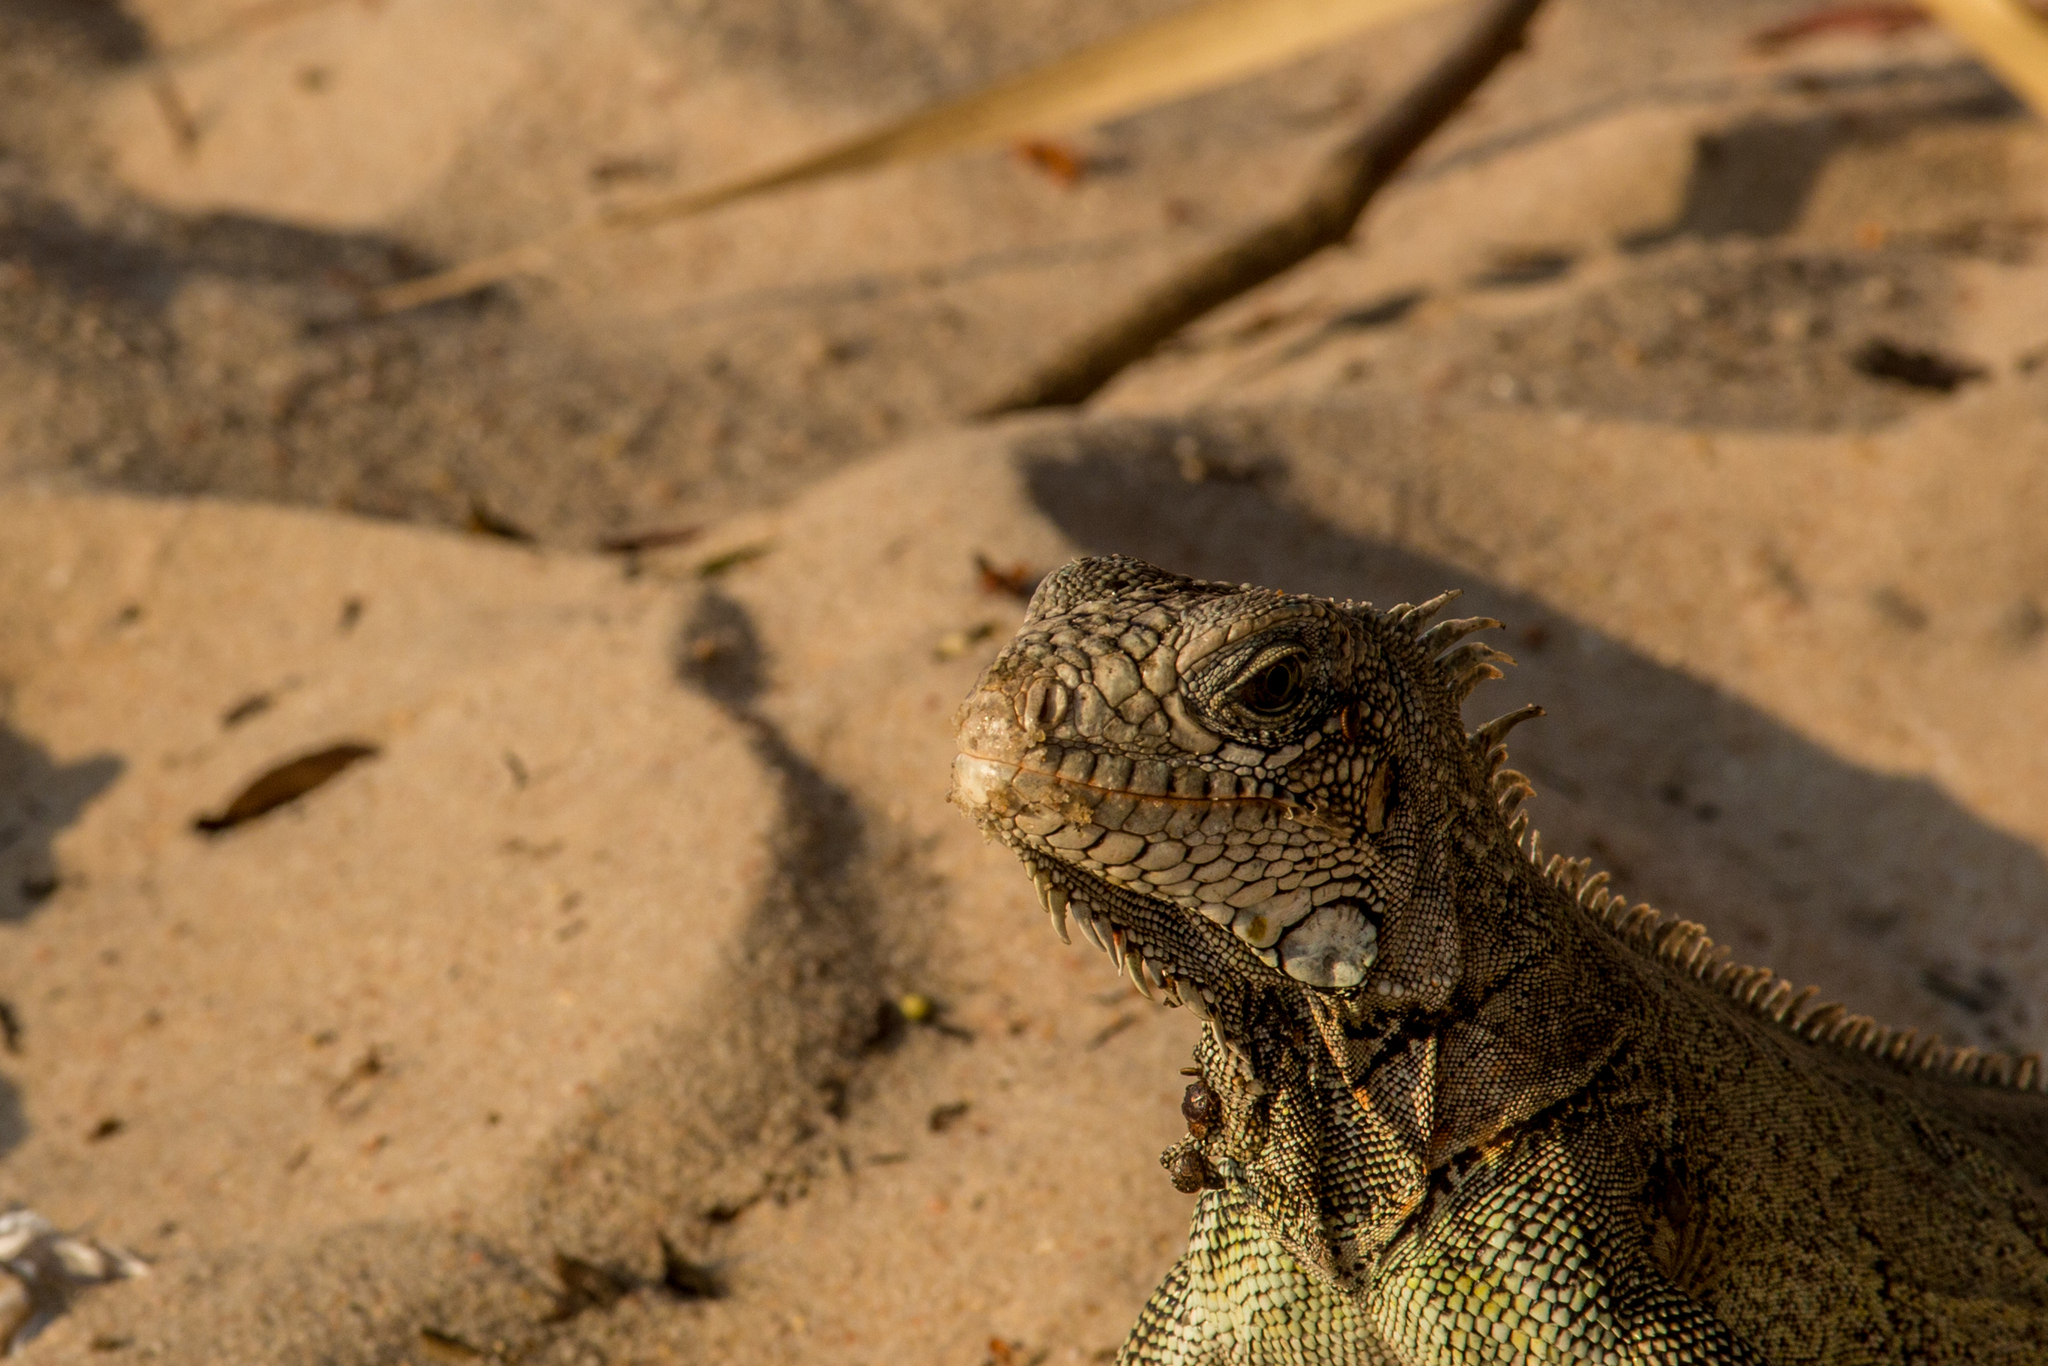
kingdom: Animalia
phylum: Chordata
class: Squamata
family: Iguanidae
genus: Iguana
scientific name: Iguana iguana
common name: Green iguana
